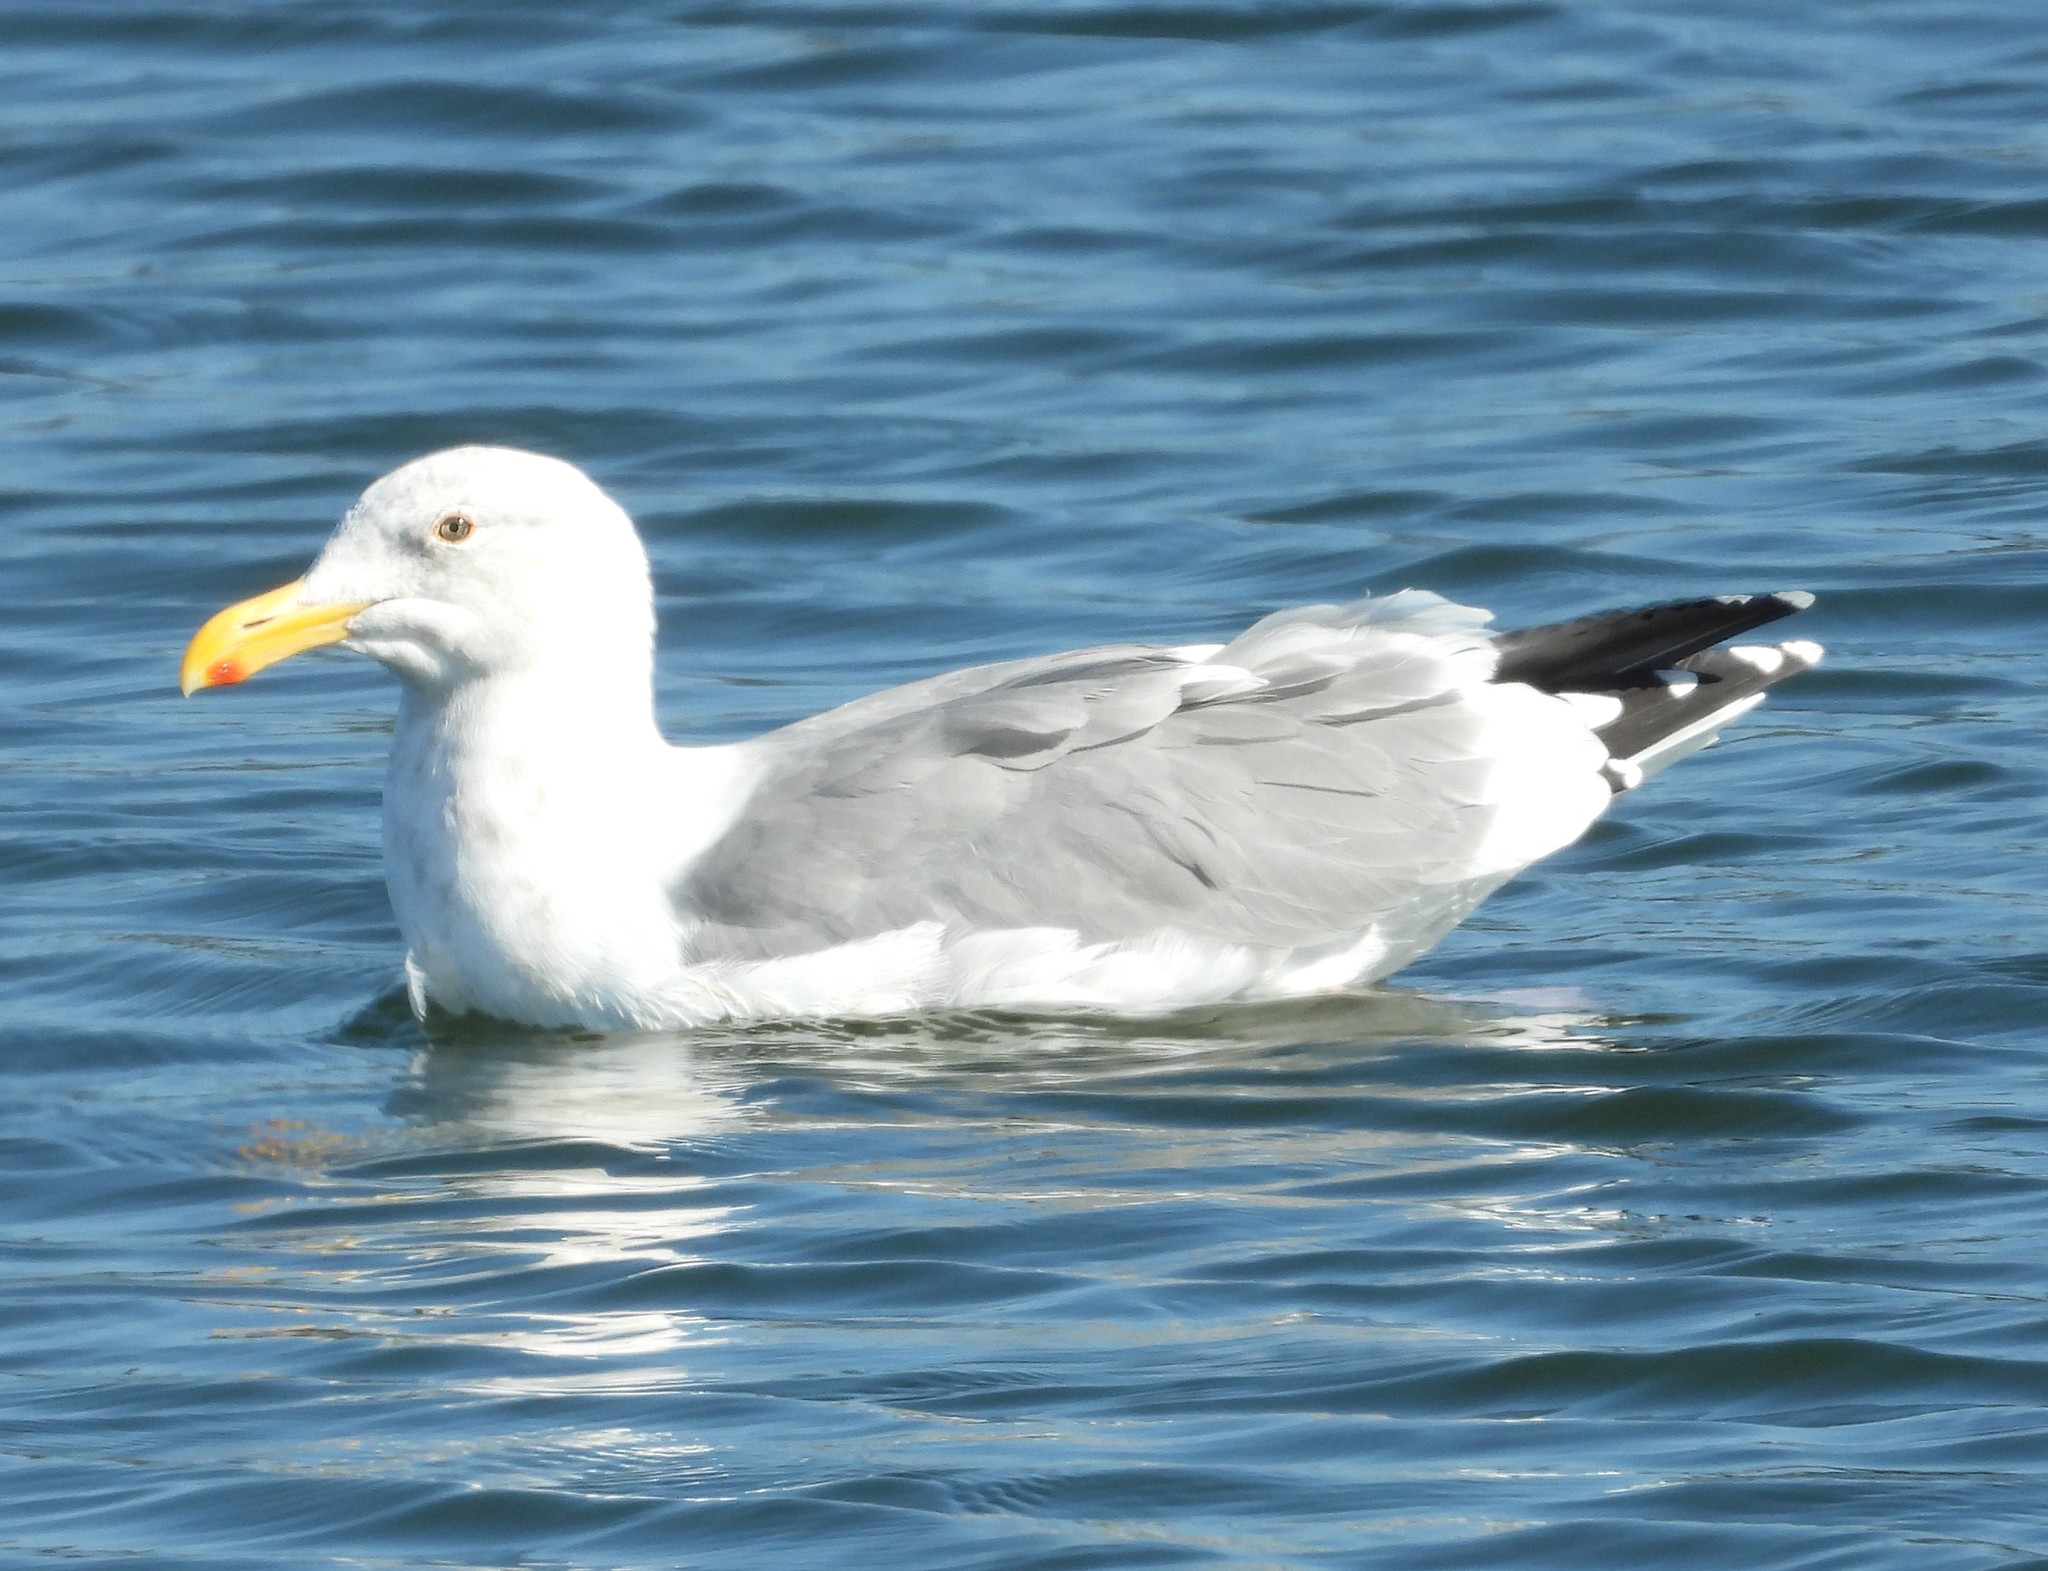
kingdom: Animalia
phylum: Chordata
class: Aves
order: Charadriiformes
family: Laridae
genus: Larus
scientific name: Larus occidentalis
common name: Western gull
